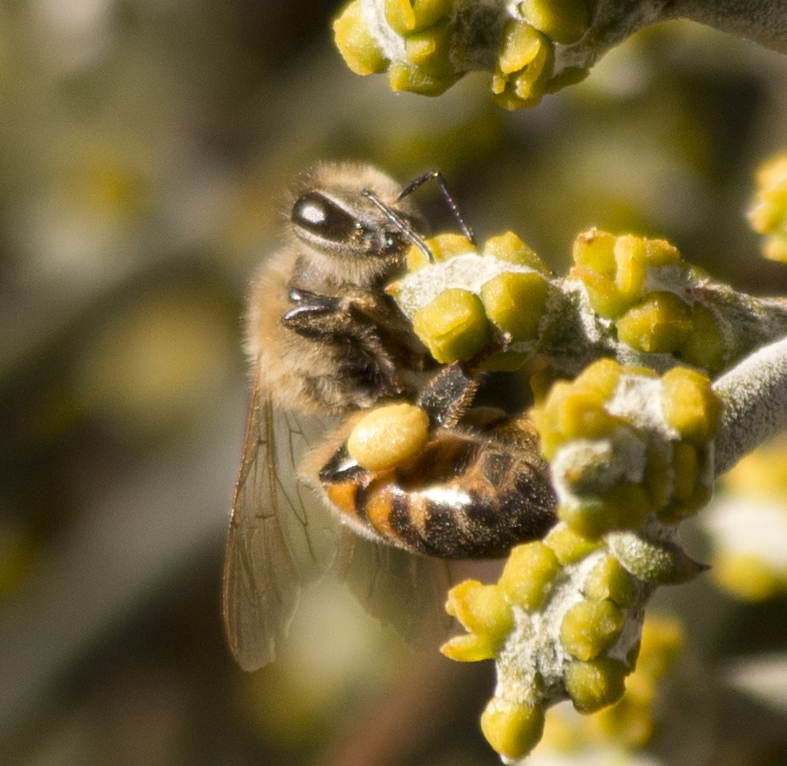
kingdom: Animalia
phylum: Arthropoda
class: Insecta
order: Hymenoptera
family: Apidae
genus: Apis
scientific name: Apis mellifera
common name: Honey bee
